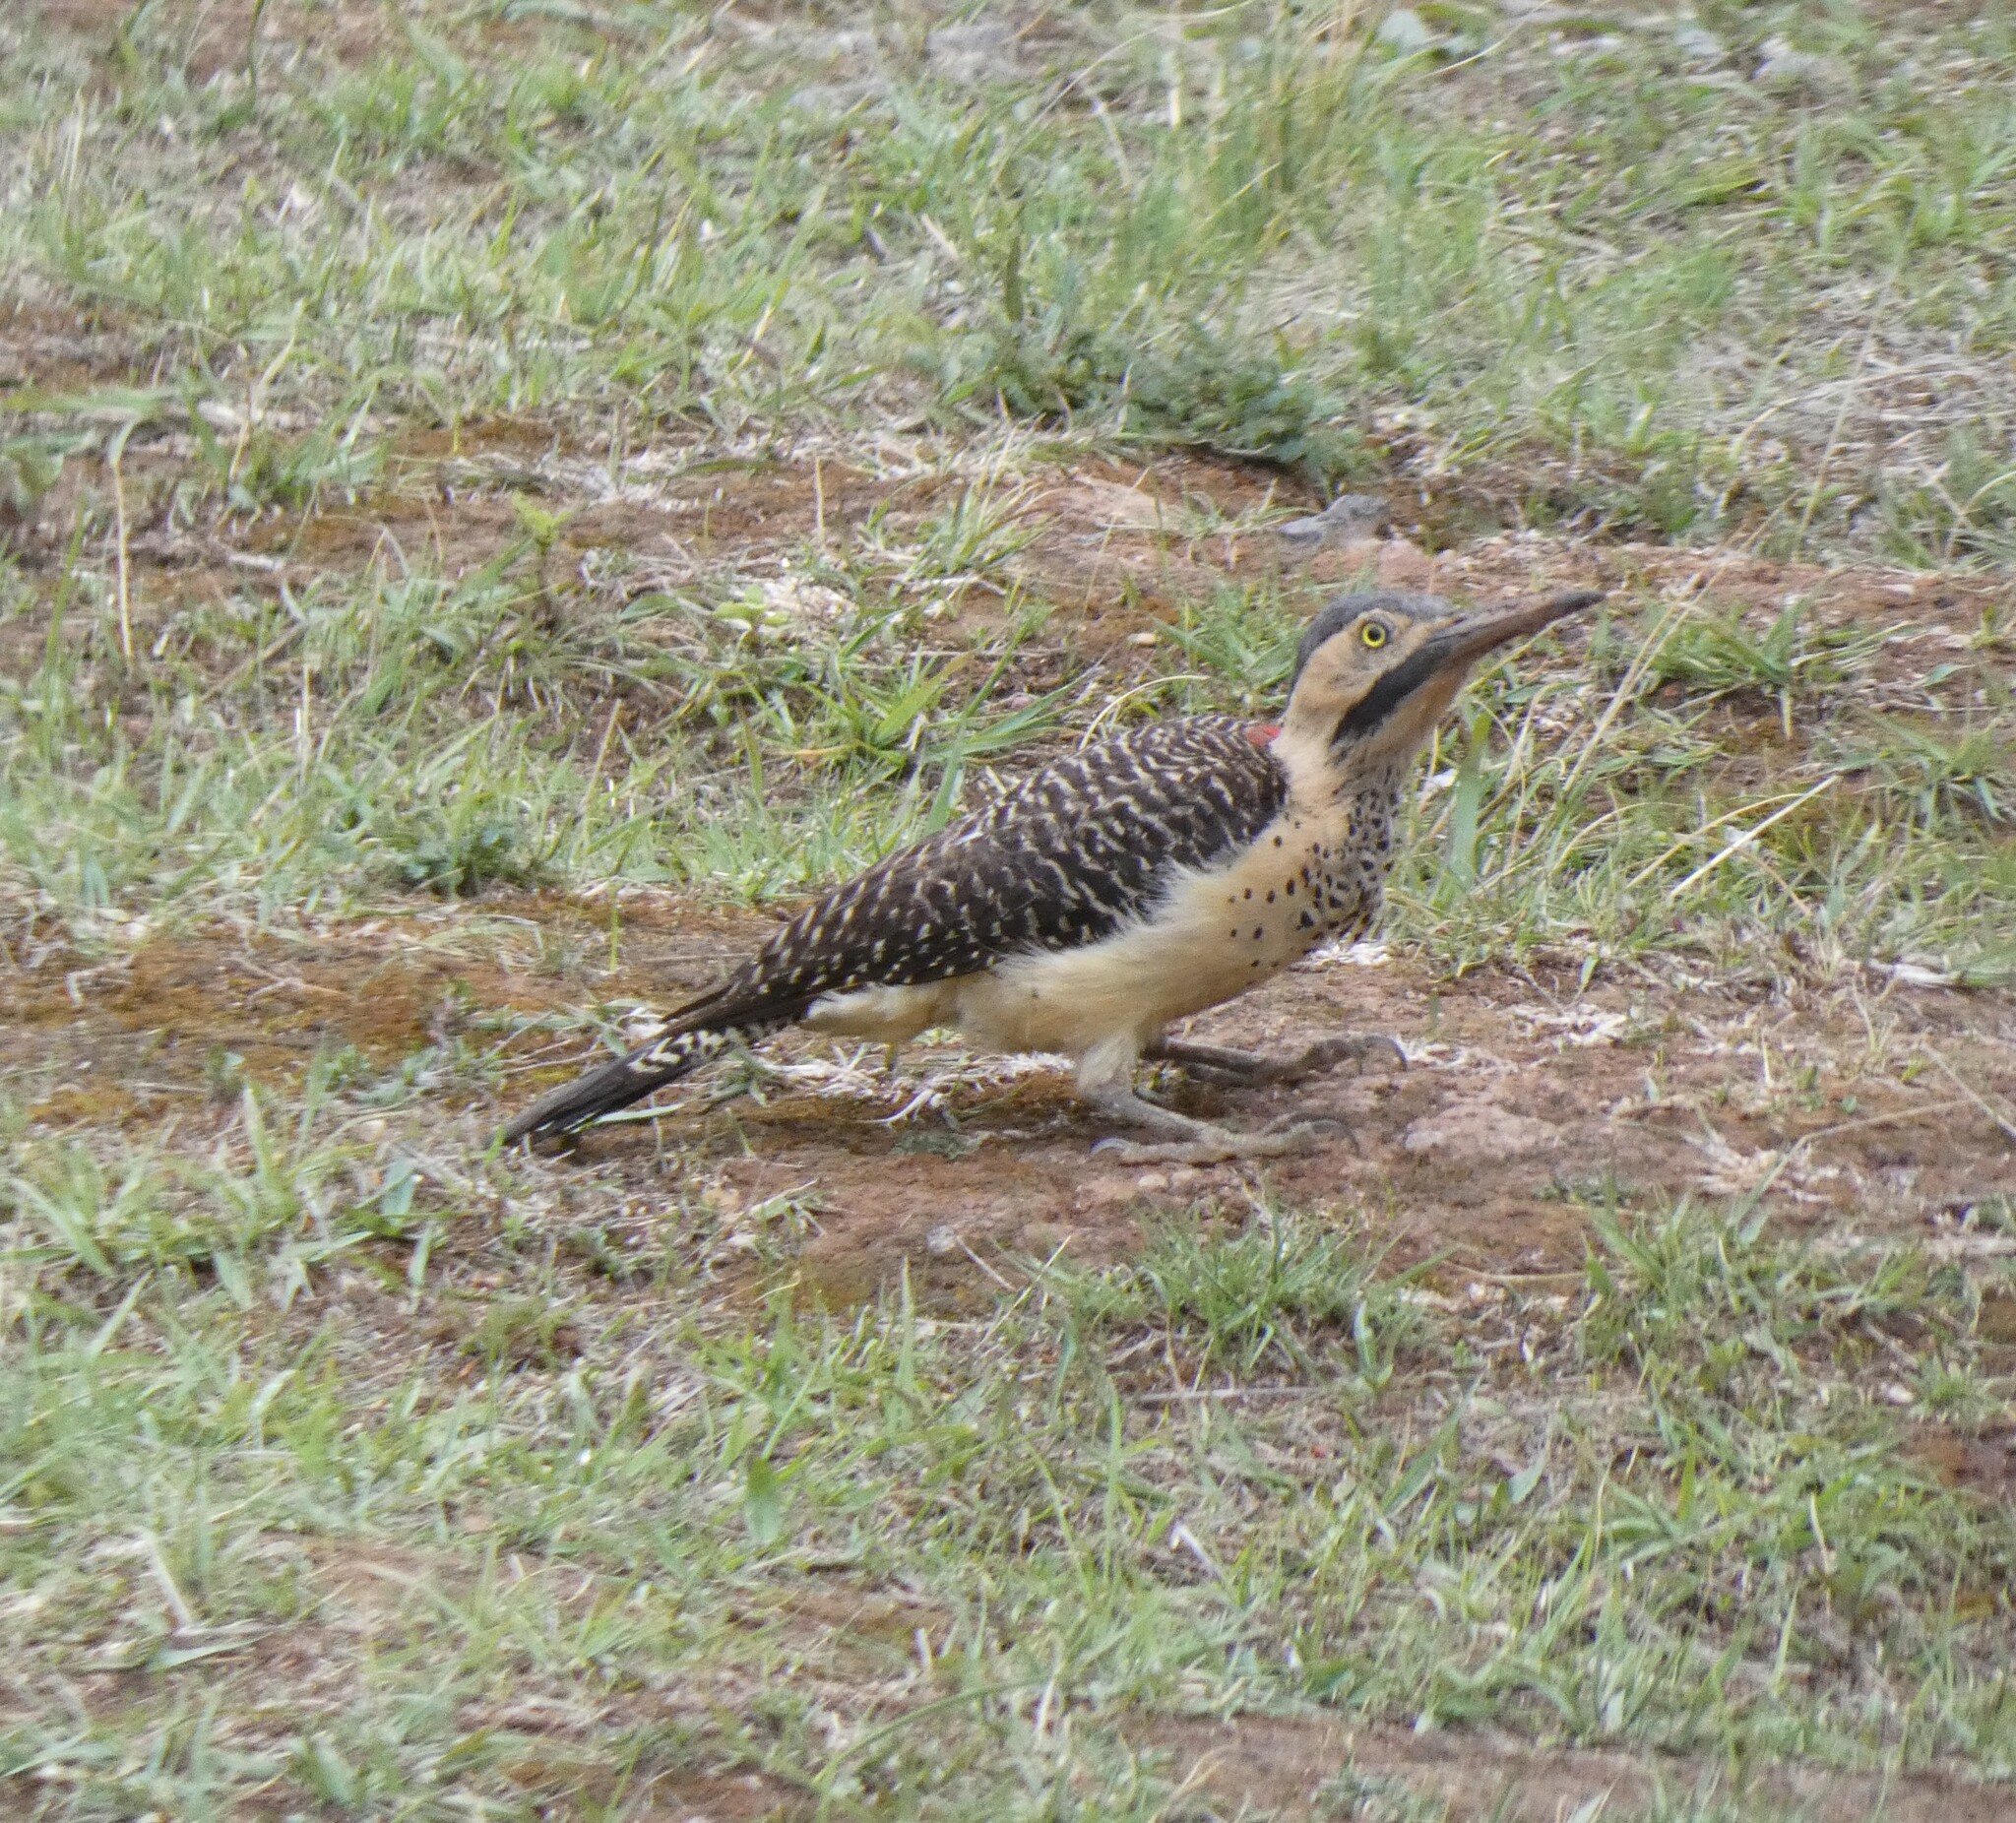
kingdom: Animalia
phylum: Chordata
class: Aves
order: Piciformes
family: Picidae
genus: Colaptes
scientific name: Colaptes rupicola
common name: Andean flicker
